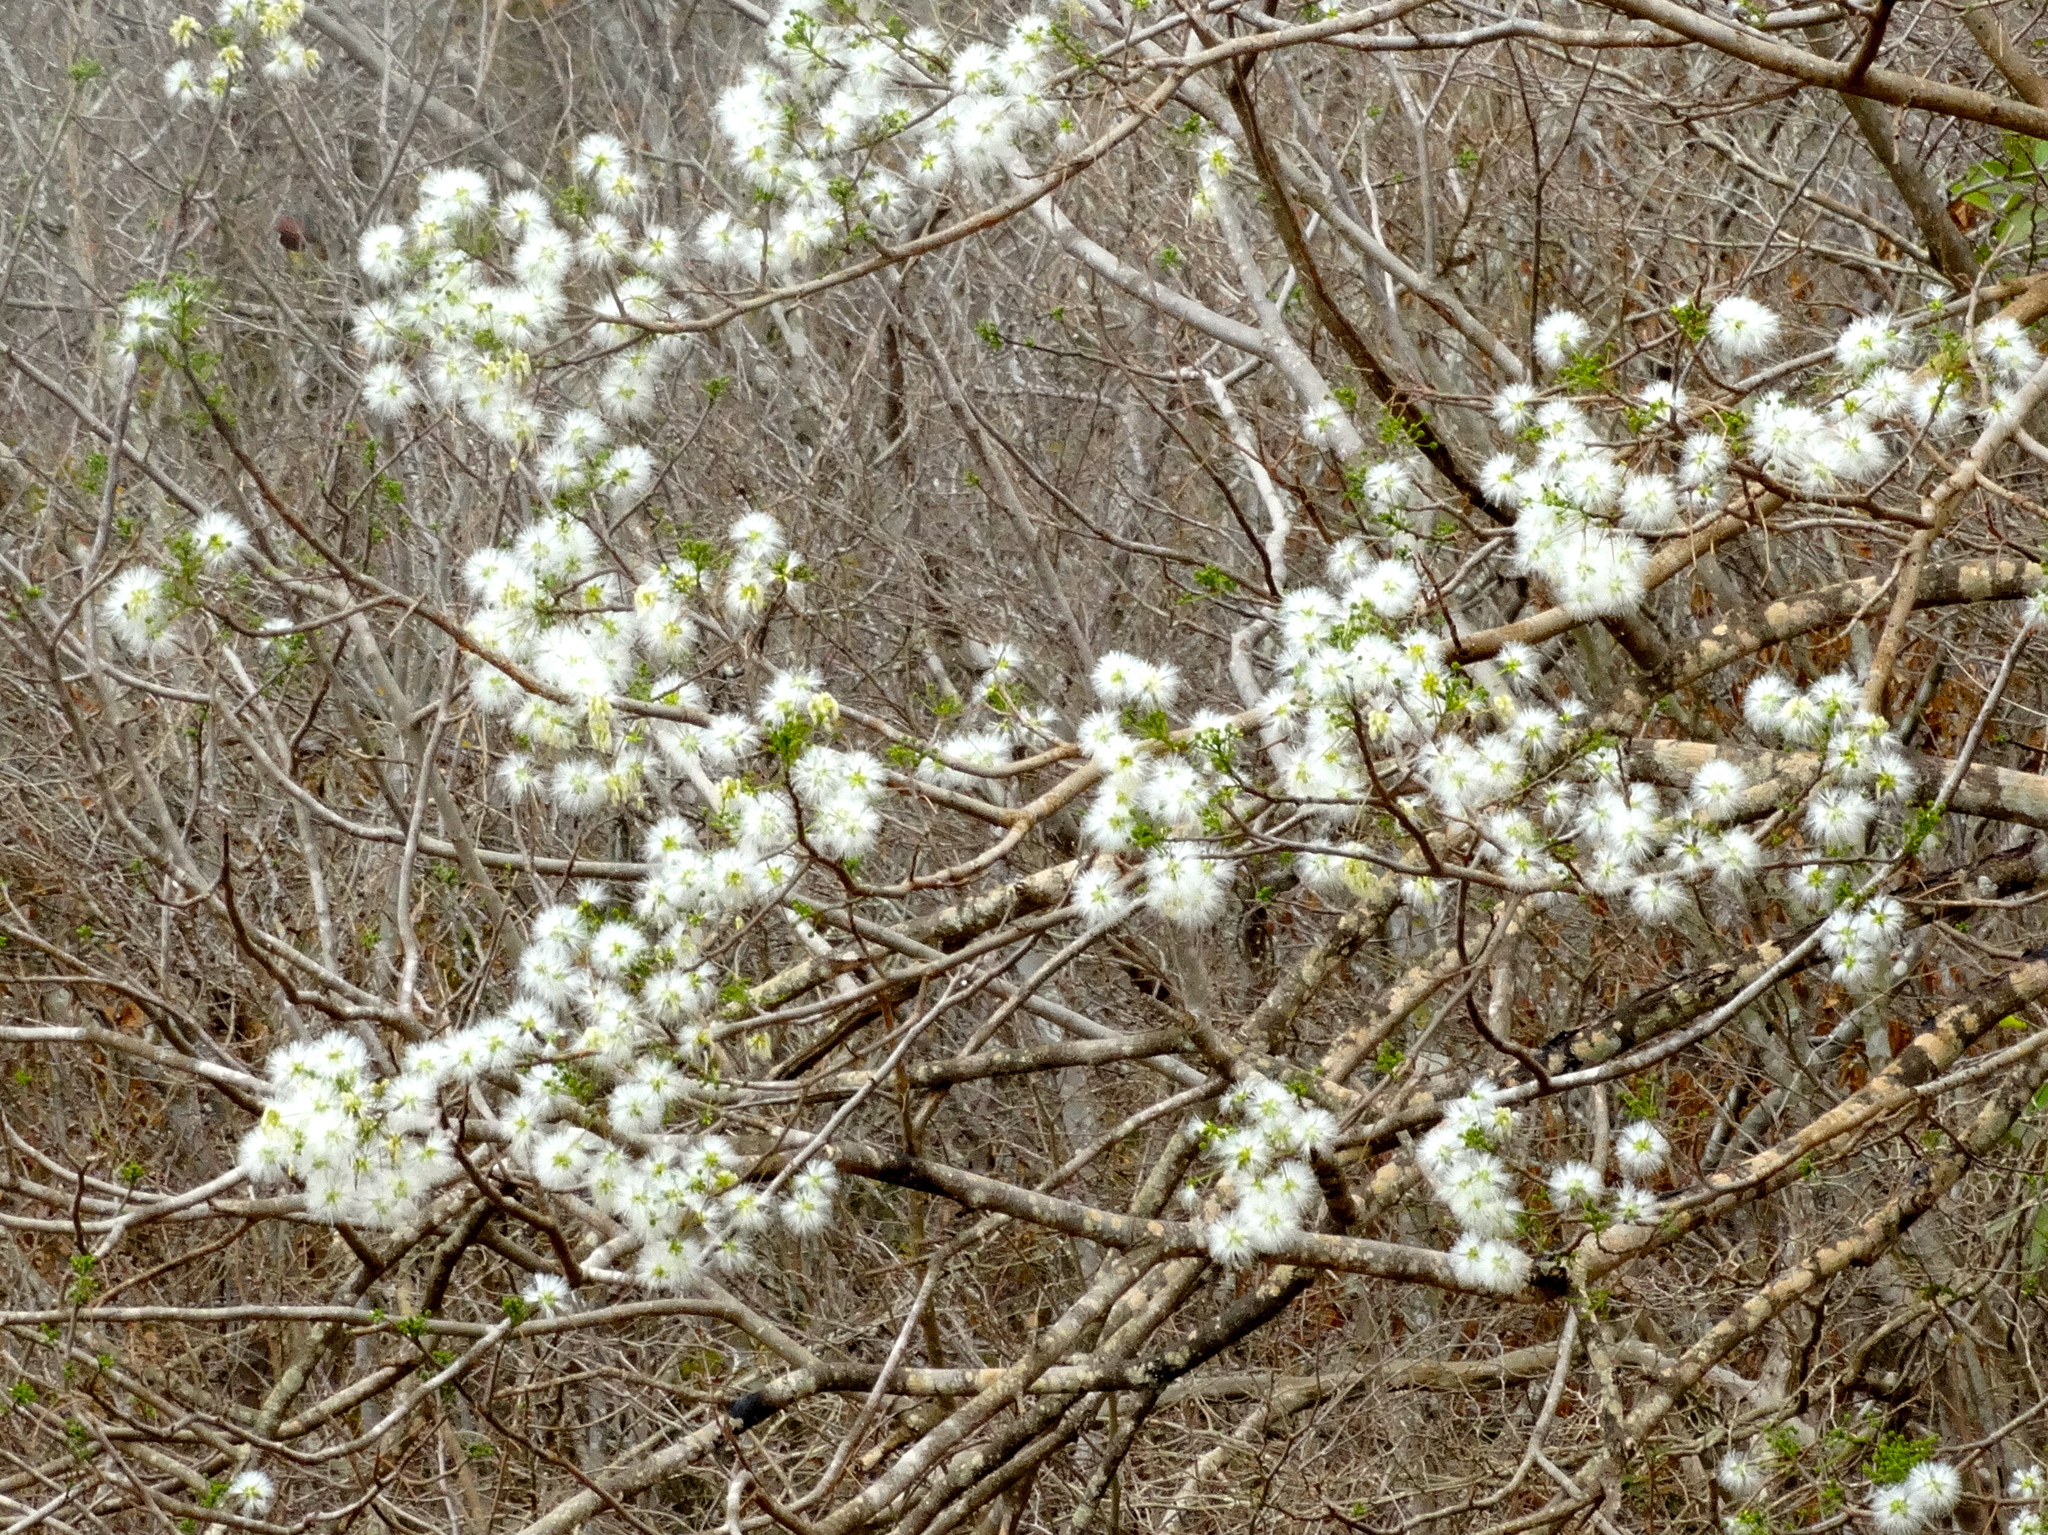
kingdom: Plantae
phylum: Tracheophyta
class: Magnoliopsida
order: Fabales
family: Fabaceae
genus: Albizia
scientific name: Albizia occidentalis
